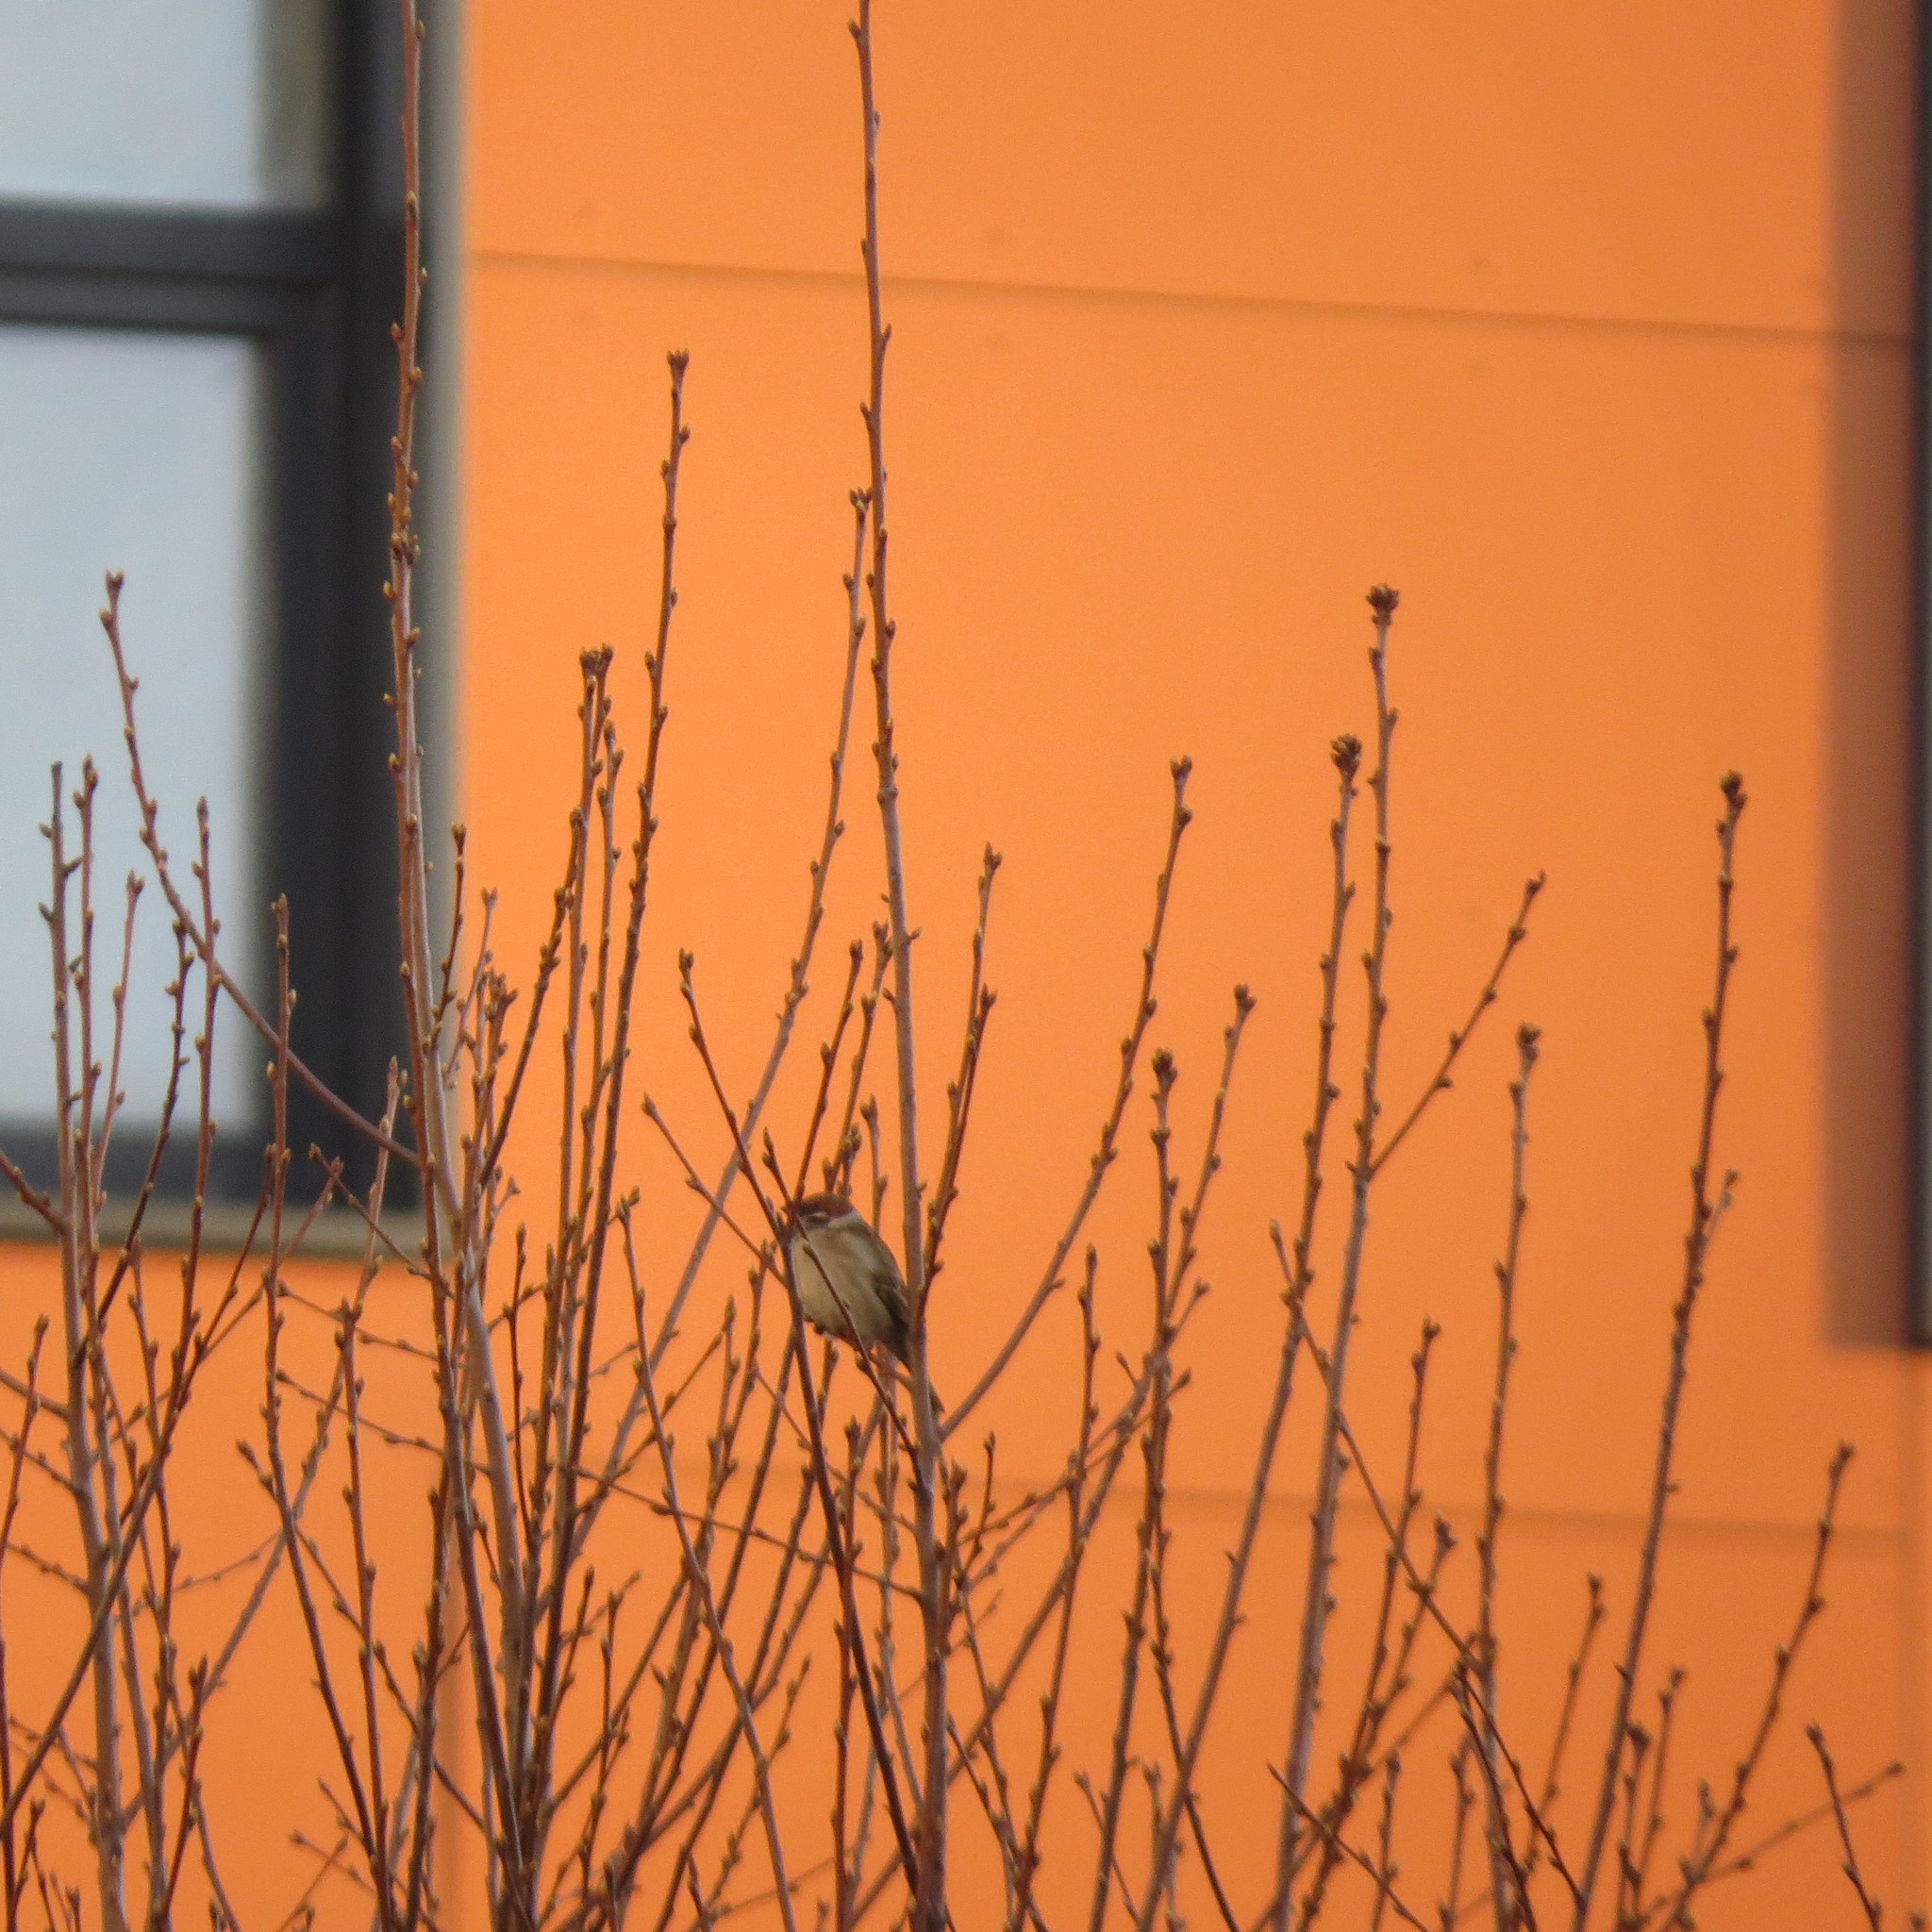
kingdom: Animalia
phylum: Chordata
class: Aves
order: Passeriformes
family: Passeridae
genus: Passer
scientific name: Passer montanus
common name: Eurasian tree sparrow
